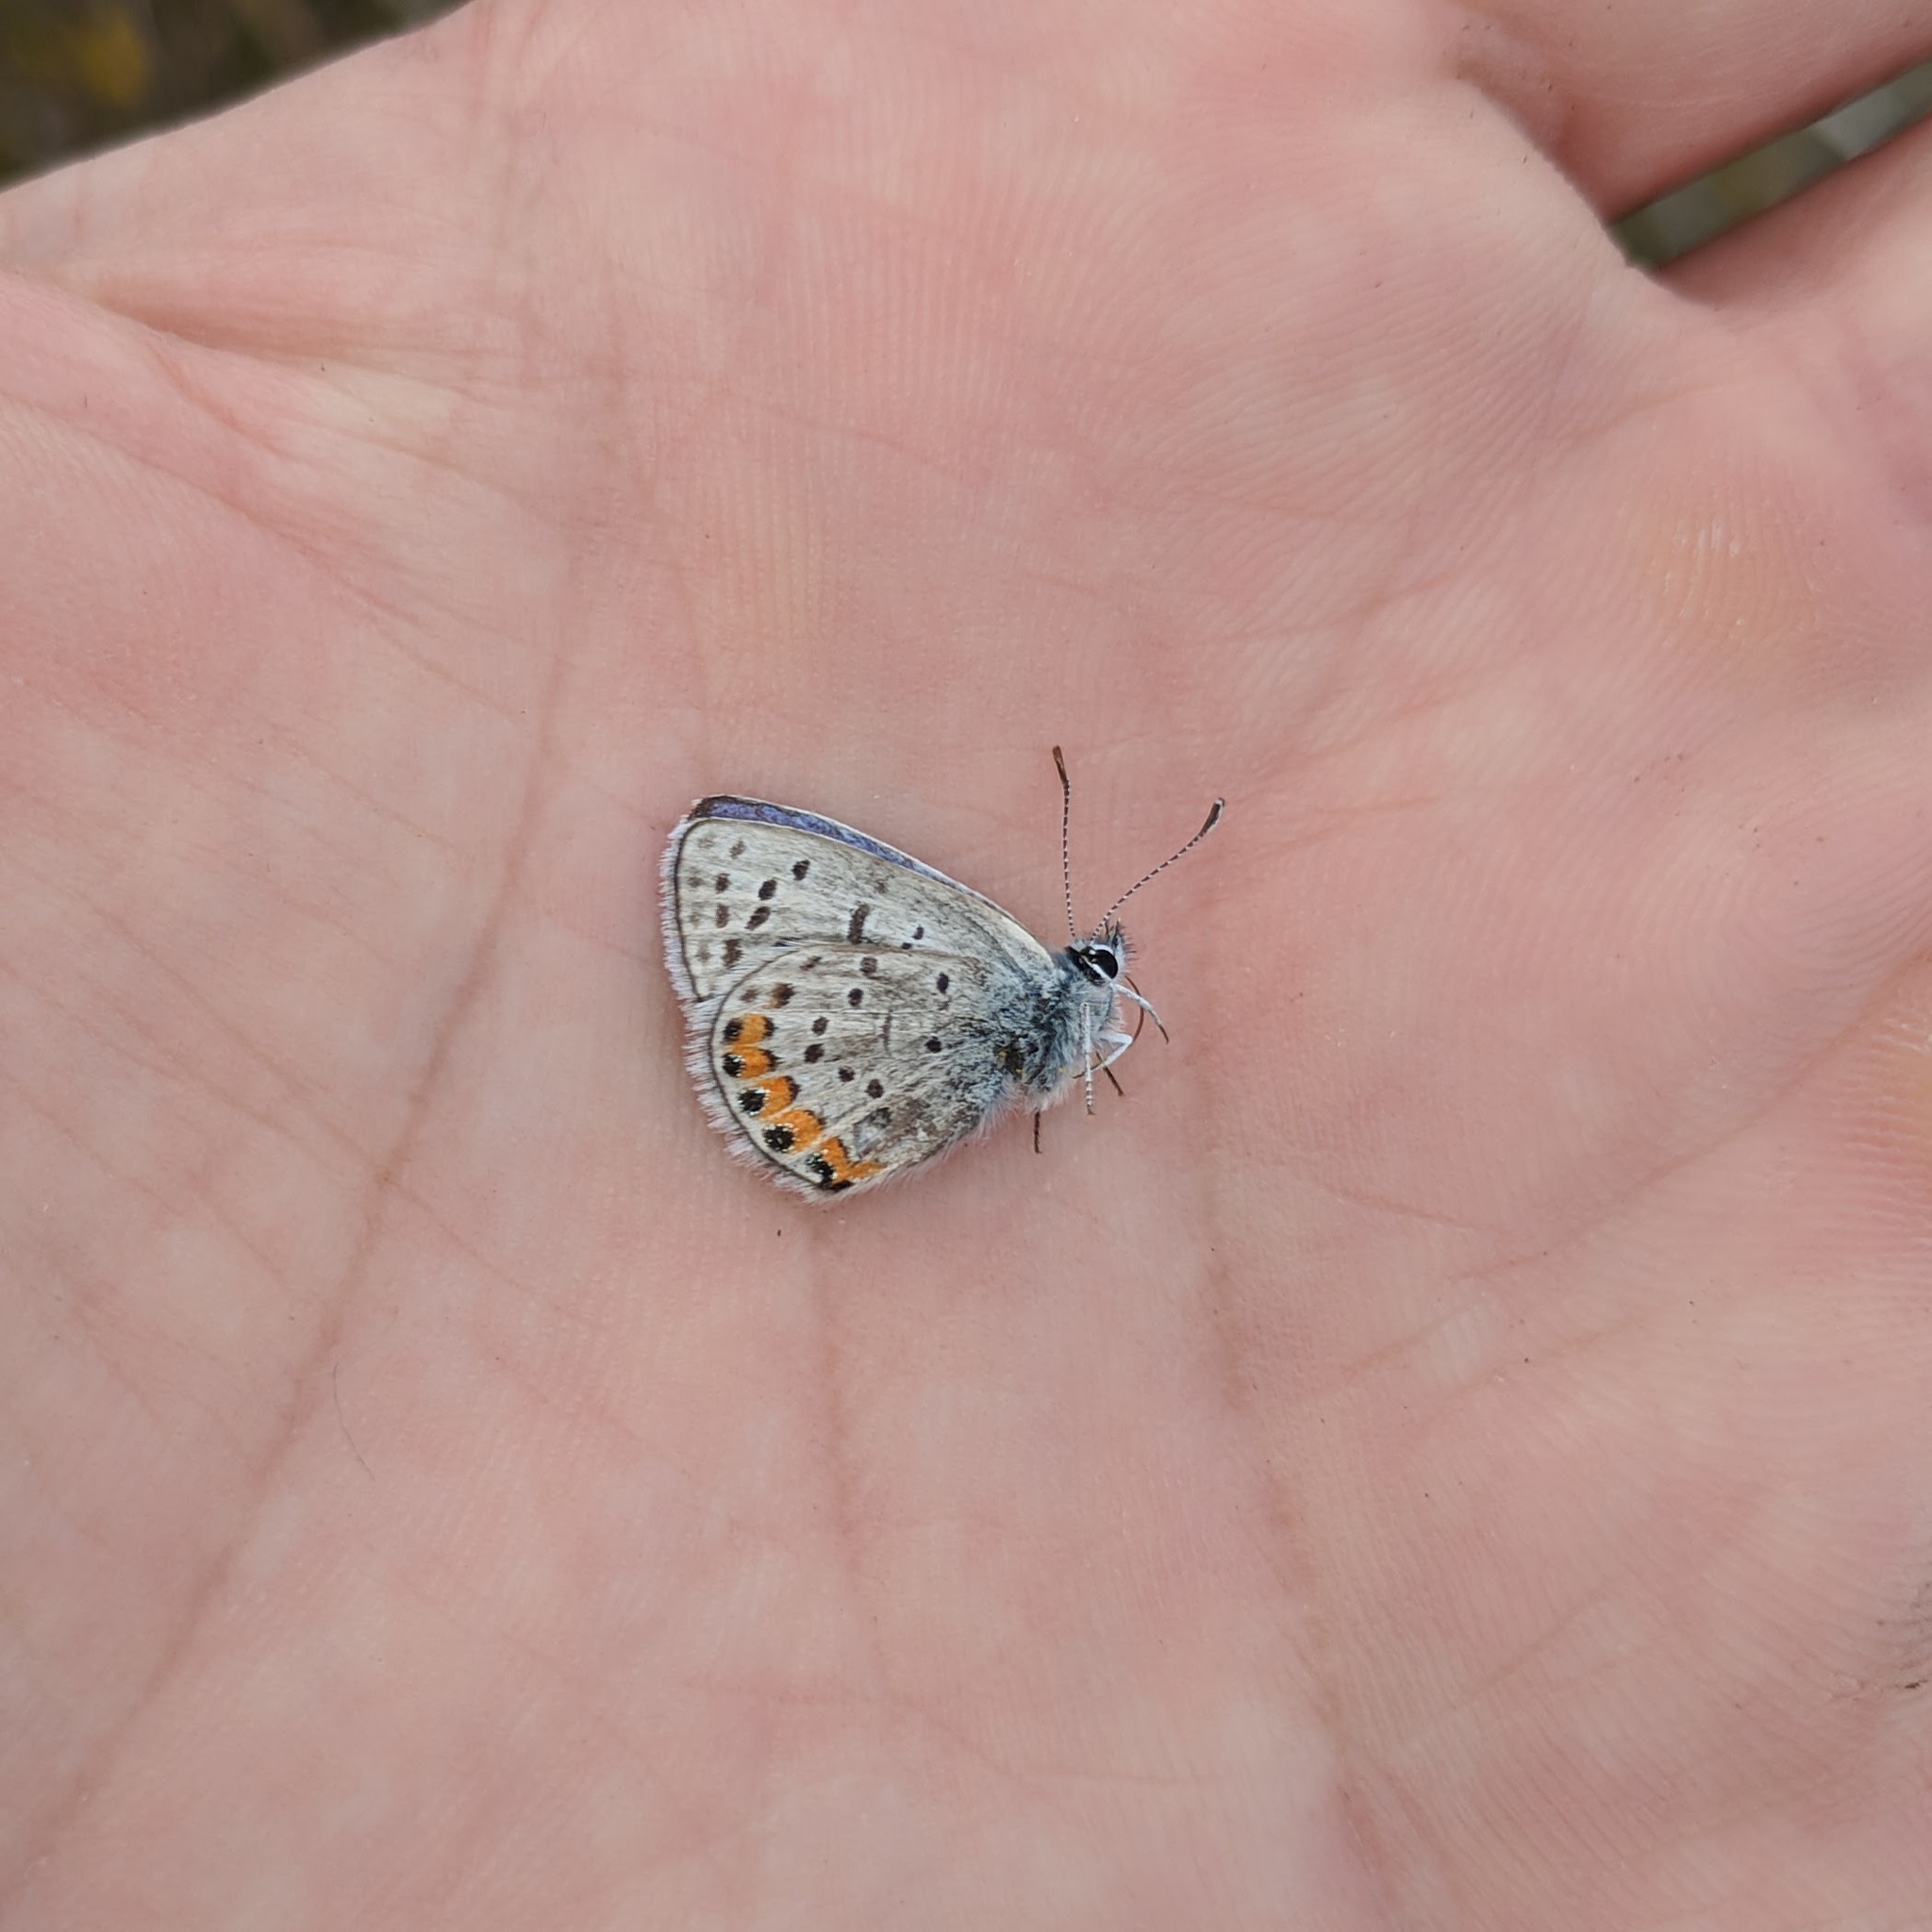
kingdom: Animalia
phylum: Arthropoda
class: Insecta
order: Lepidoptera
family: Lycaenidae
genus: Icaricia
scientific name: Icaricia acmon
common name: Acmon blue
